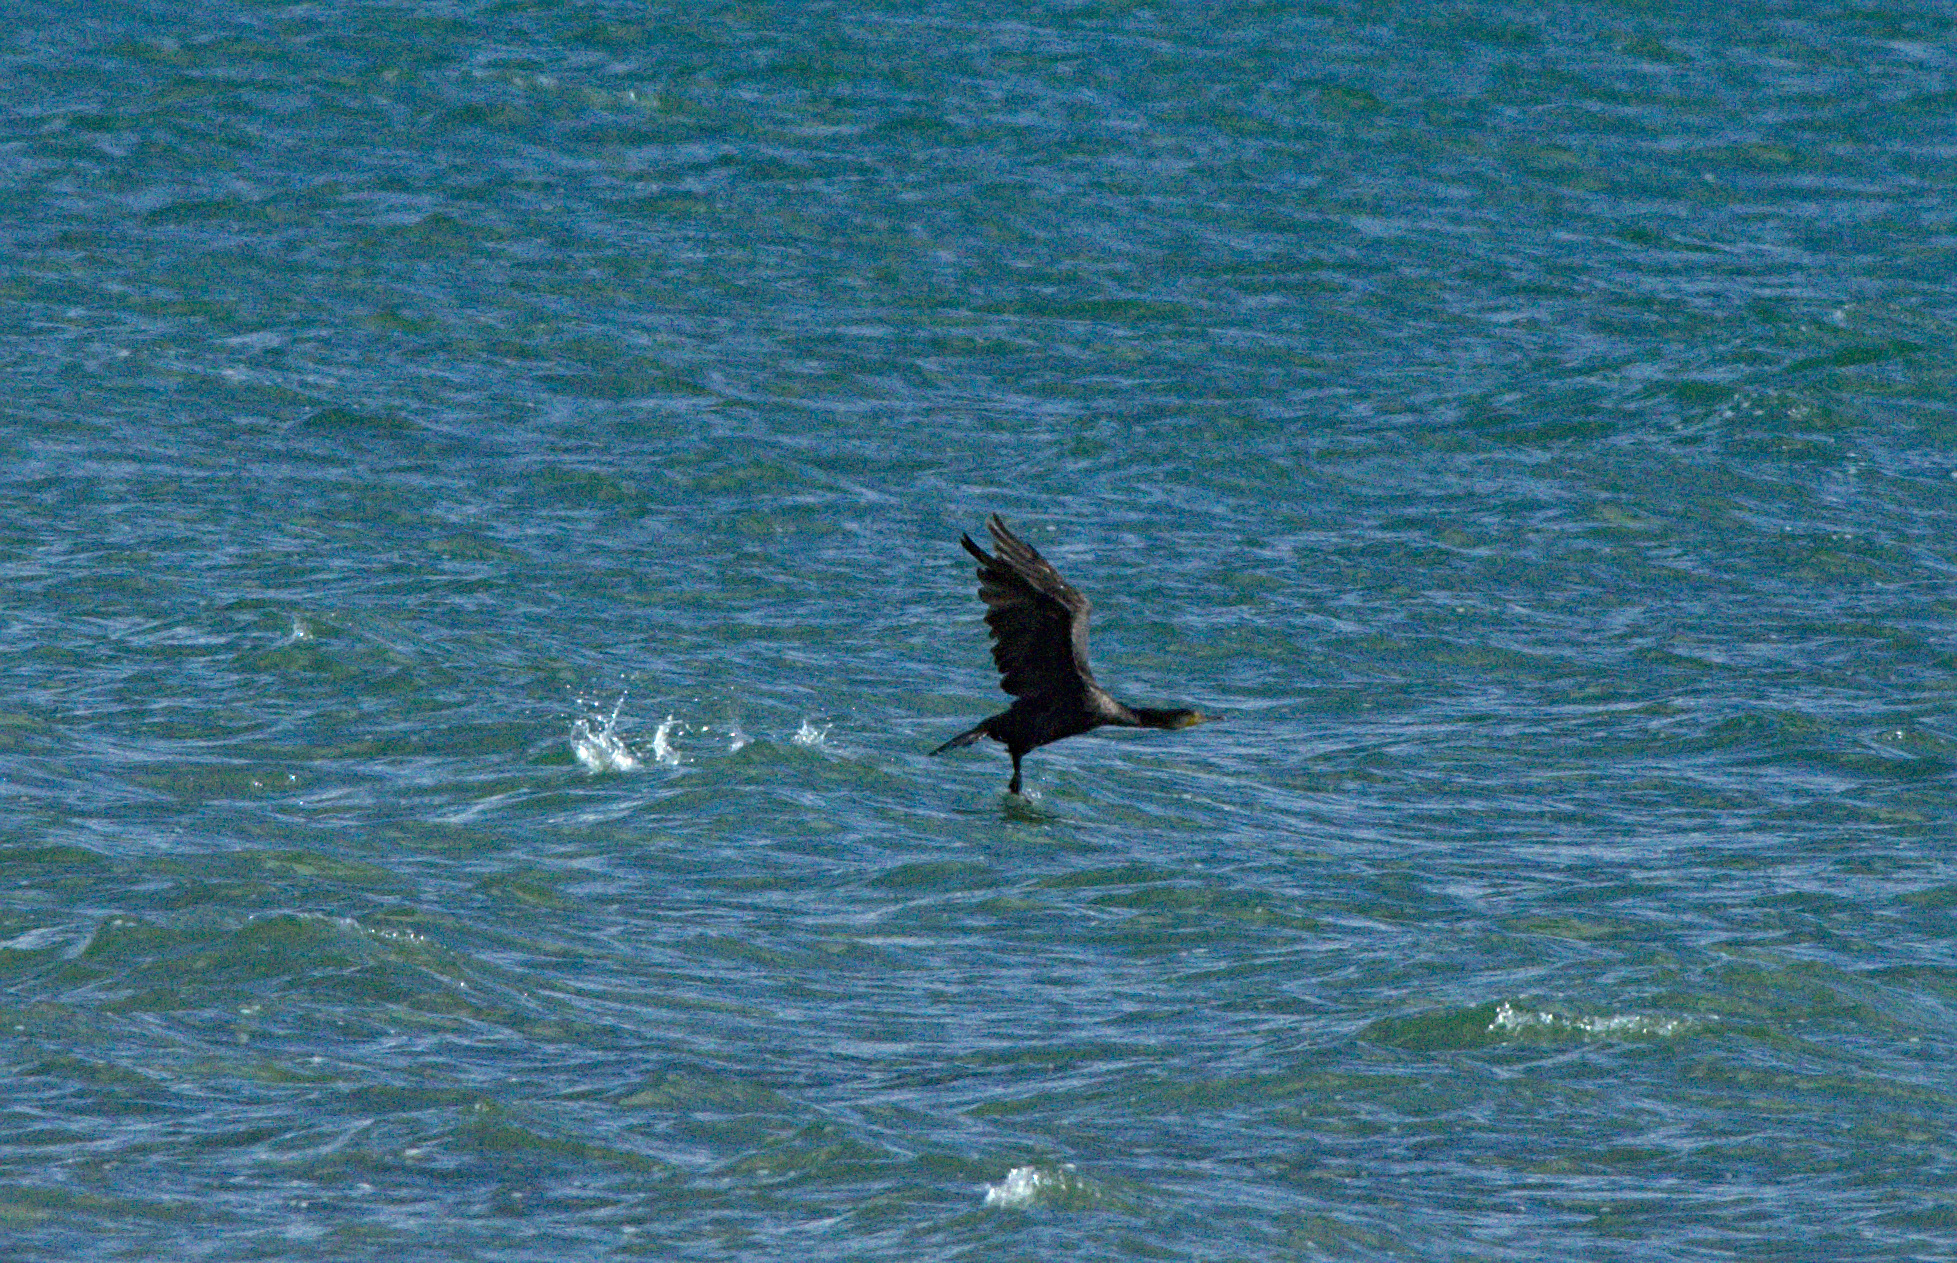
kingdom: Animalia
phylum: Chordata
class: Aves
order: Suliformes
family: Phalacrocoracidae
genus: Phalacrocorax
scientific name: Phalacrocorax carbo
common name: Great cormorant
